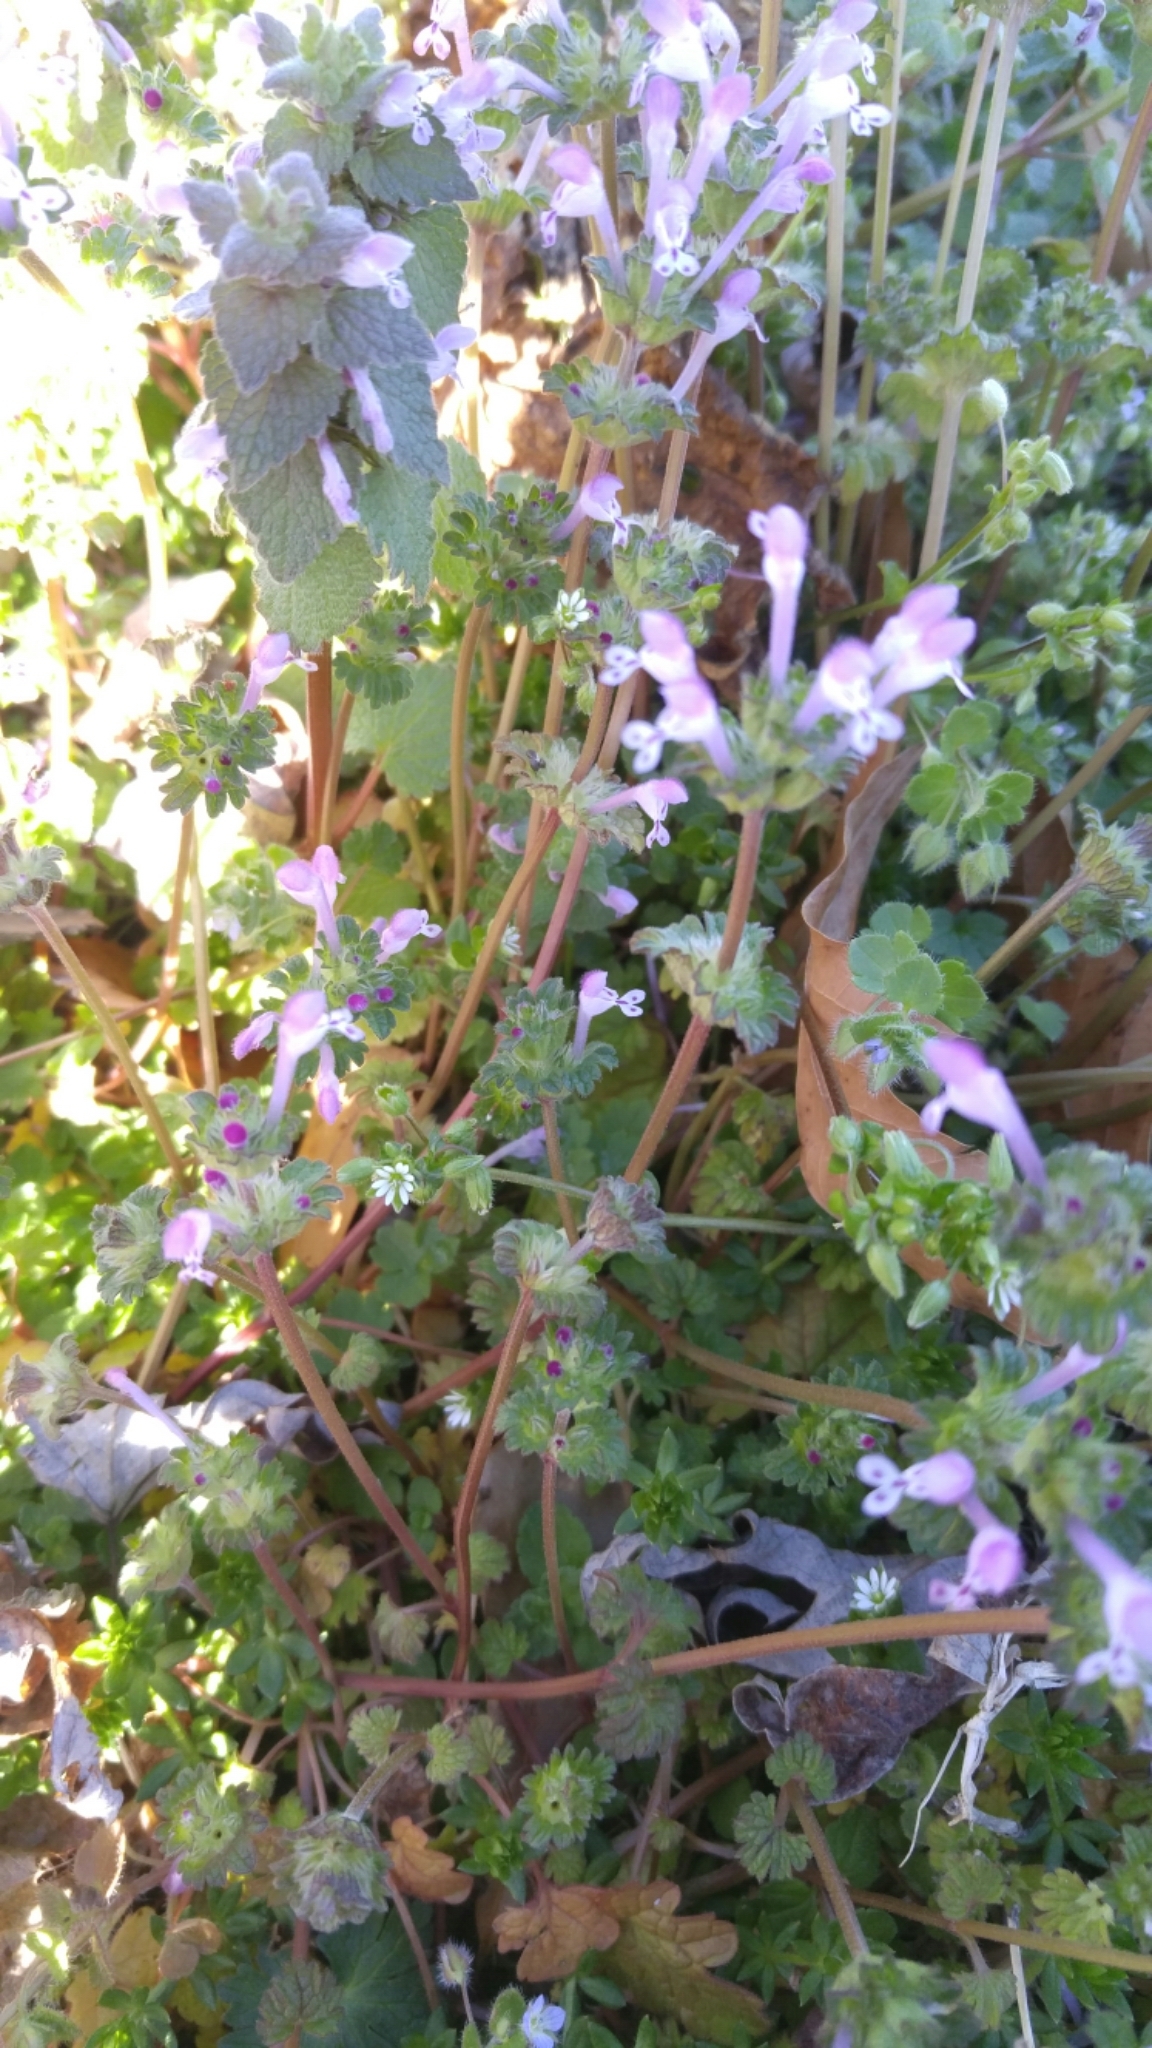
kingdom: Plantae
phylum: Tracheophyta
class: Magnoliopsida
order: Lamiales
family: Lamiaceae
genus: Lamium
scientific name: Lamium amplexicaule
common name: Henbit dead-nettle
